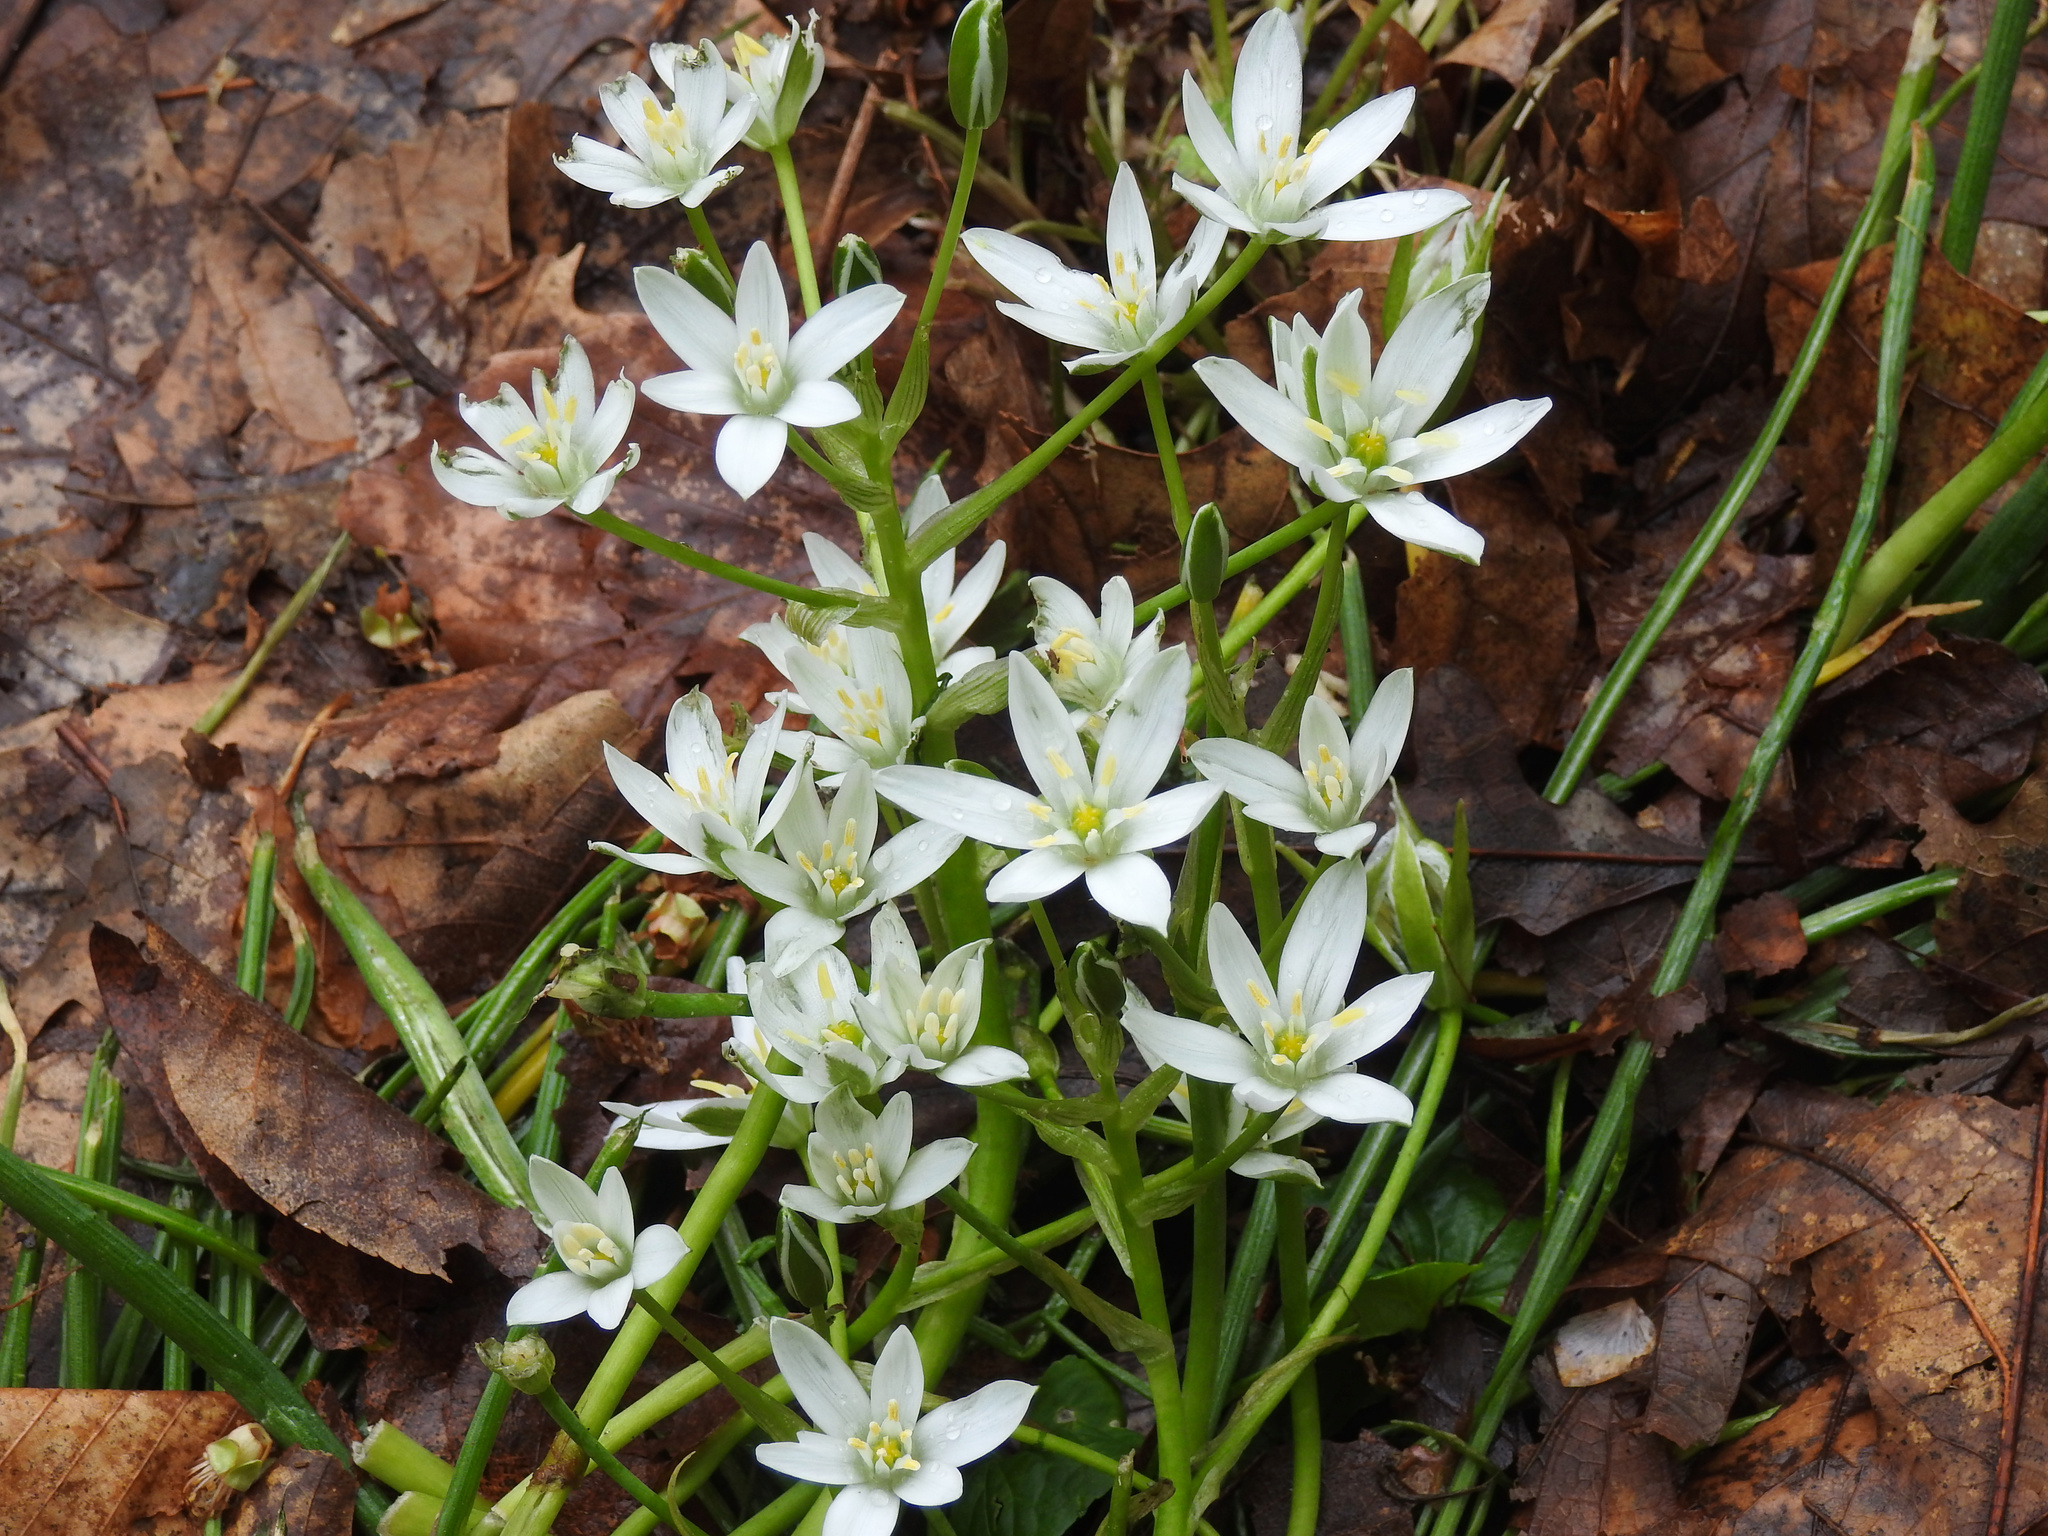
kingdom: Plantae
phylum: Tracheophyta
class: Liliopsida
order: Asparagales
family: Asparagaceae
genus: Ornithogalum
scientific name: Ornithogalum umbellatum
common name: Garden star-of-bethlehem
